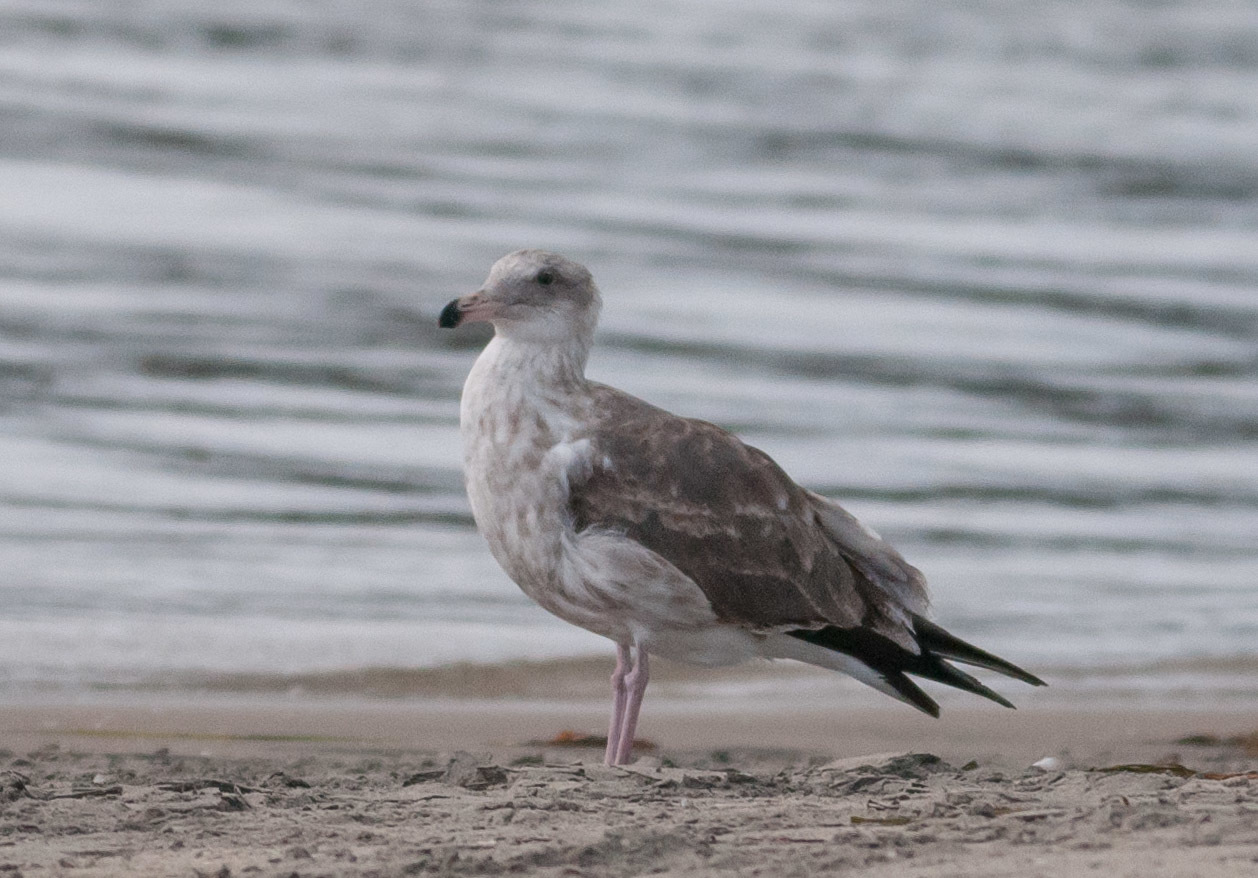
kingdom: Animalia
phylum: Chordata
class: Aves
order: Charadriiformes
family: Laridae
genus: Larus
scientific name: Larus occidentalis
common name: Western gull
